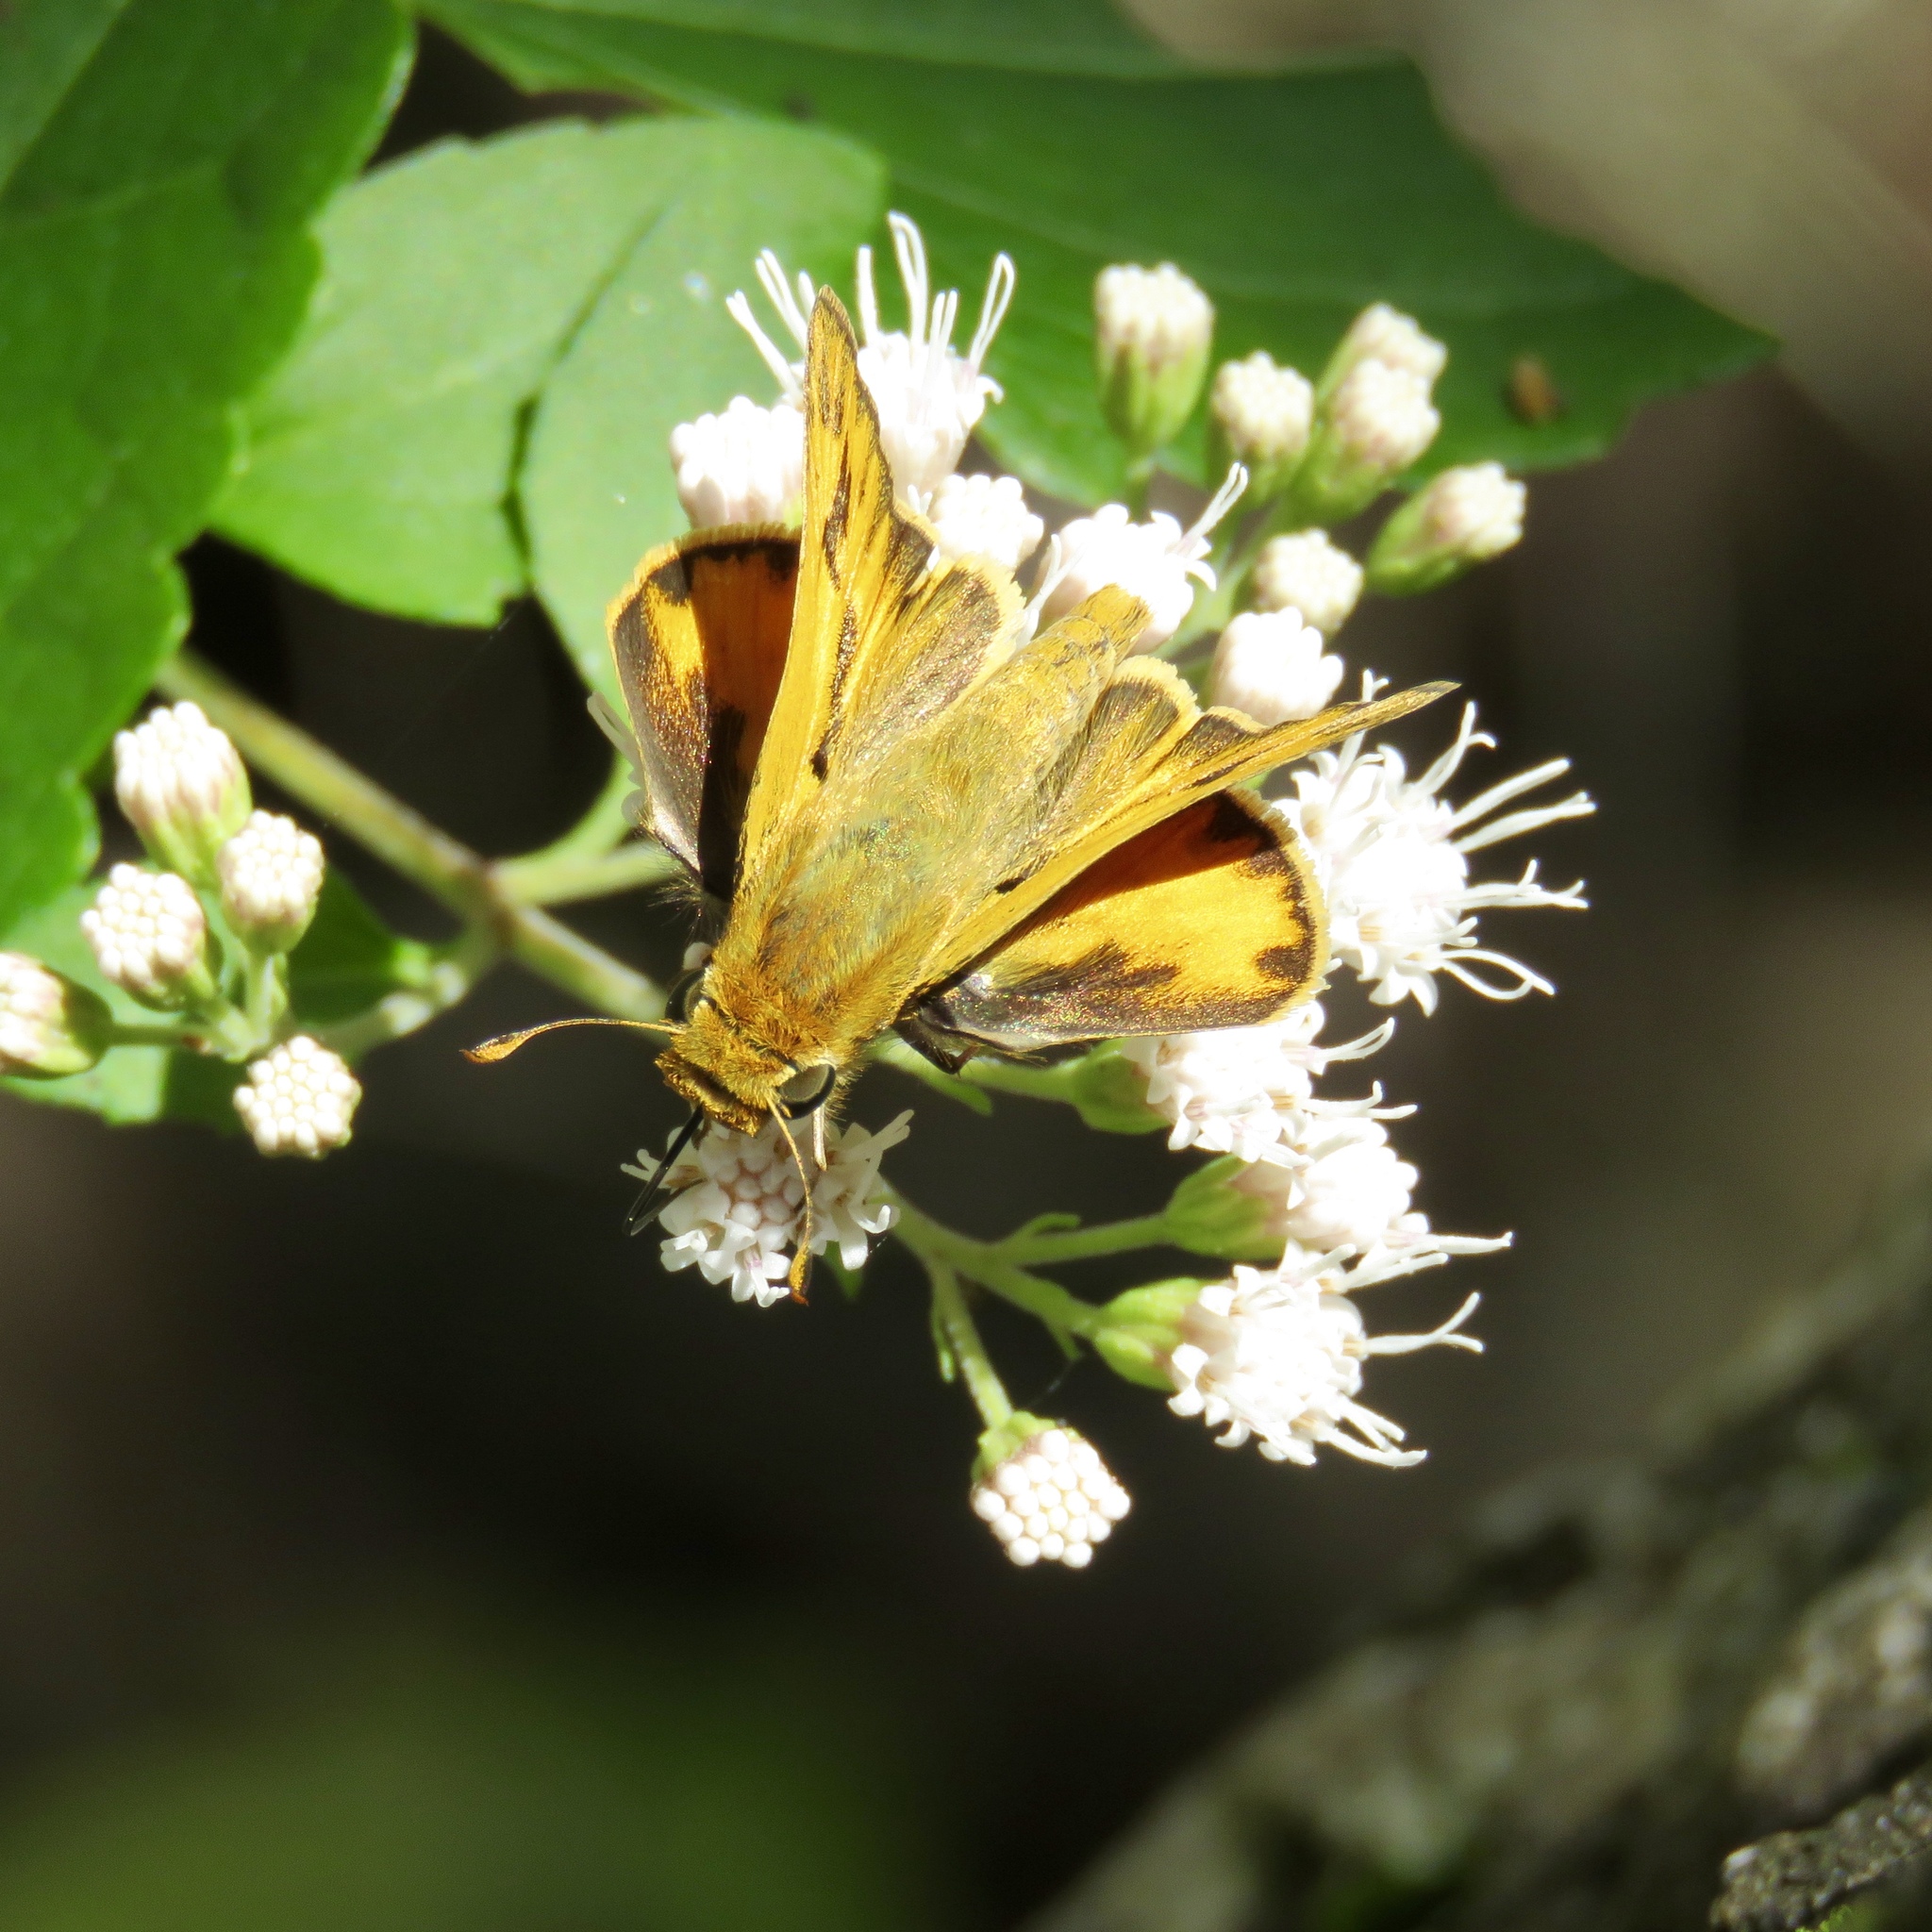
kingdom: Animalia
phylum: Arthropoda
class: Insecta
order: Lepidoptera
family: Hesperiidae
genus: Hylephila
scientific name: Hylephila phyleus
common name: Fiery skipper
